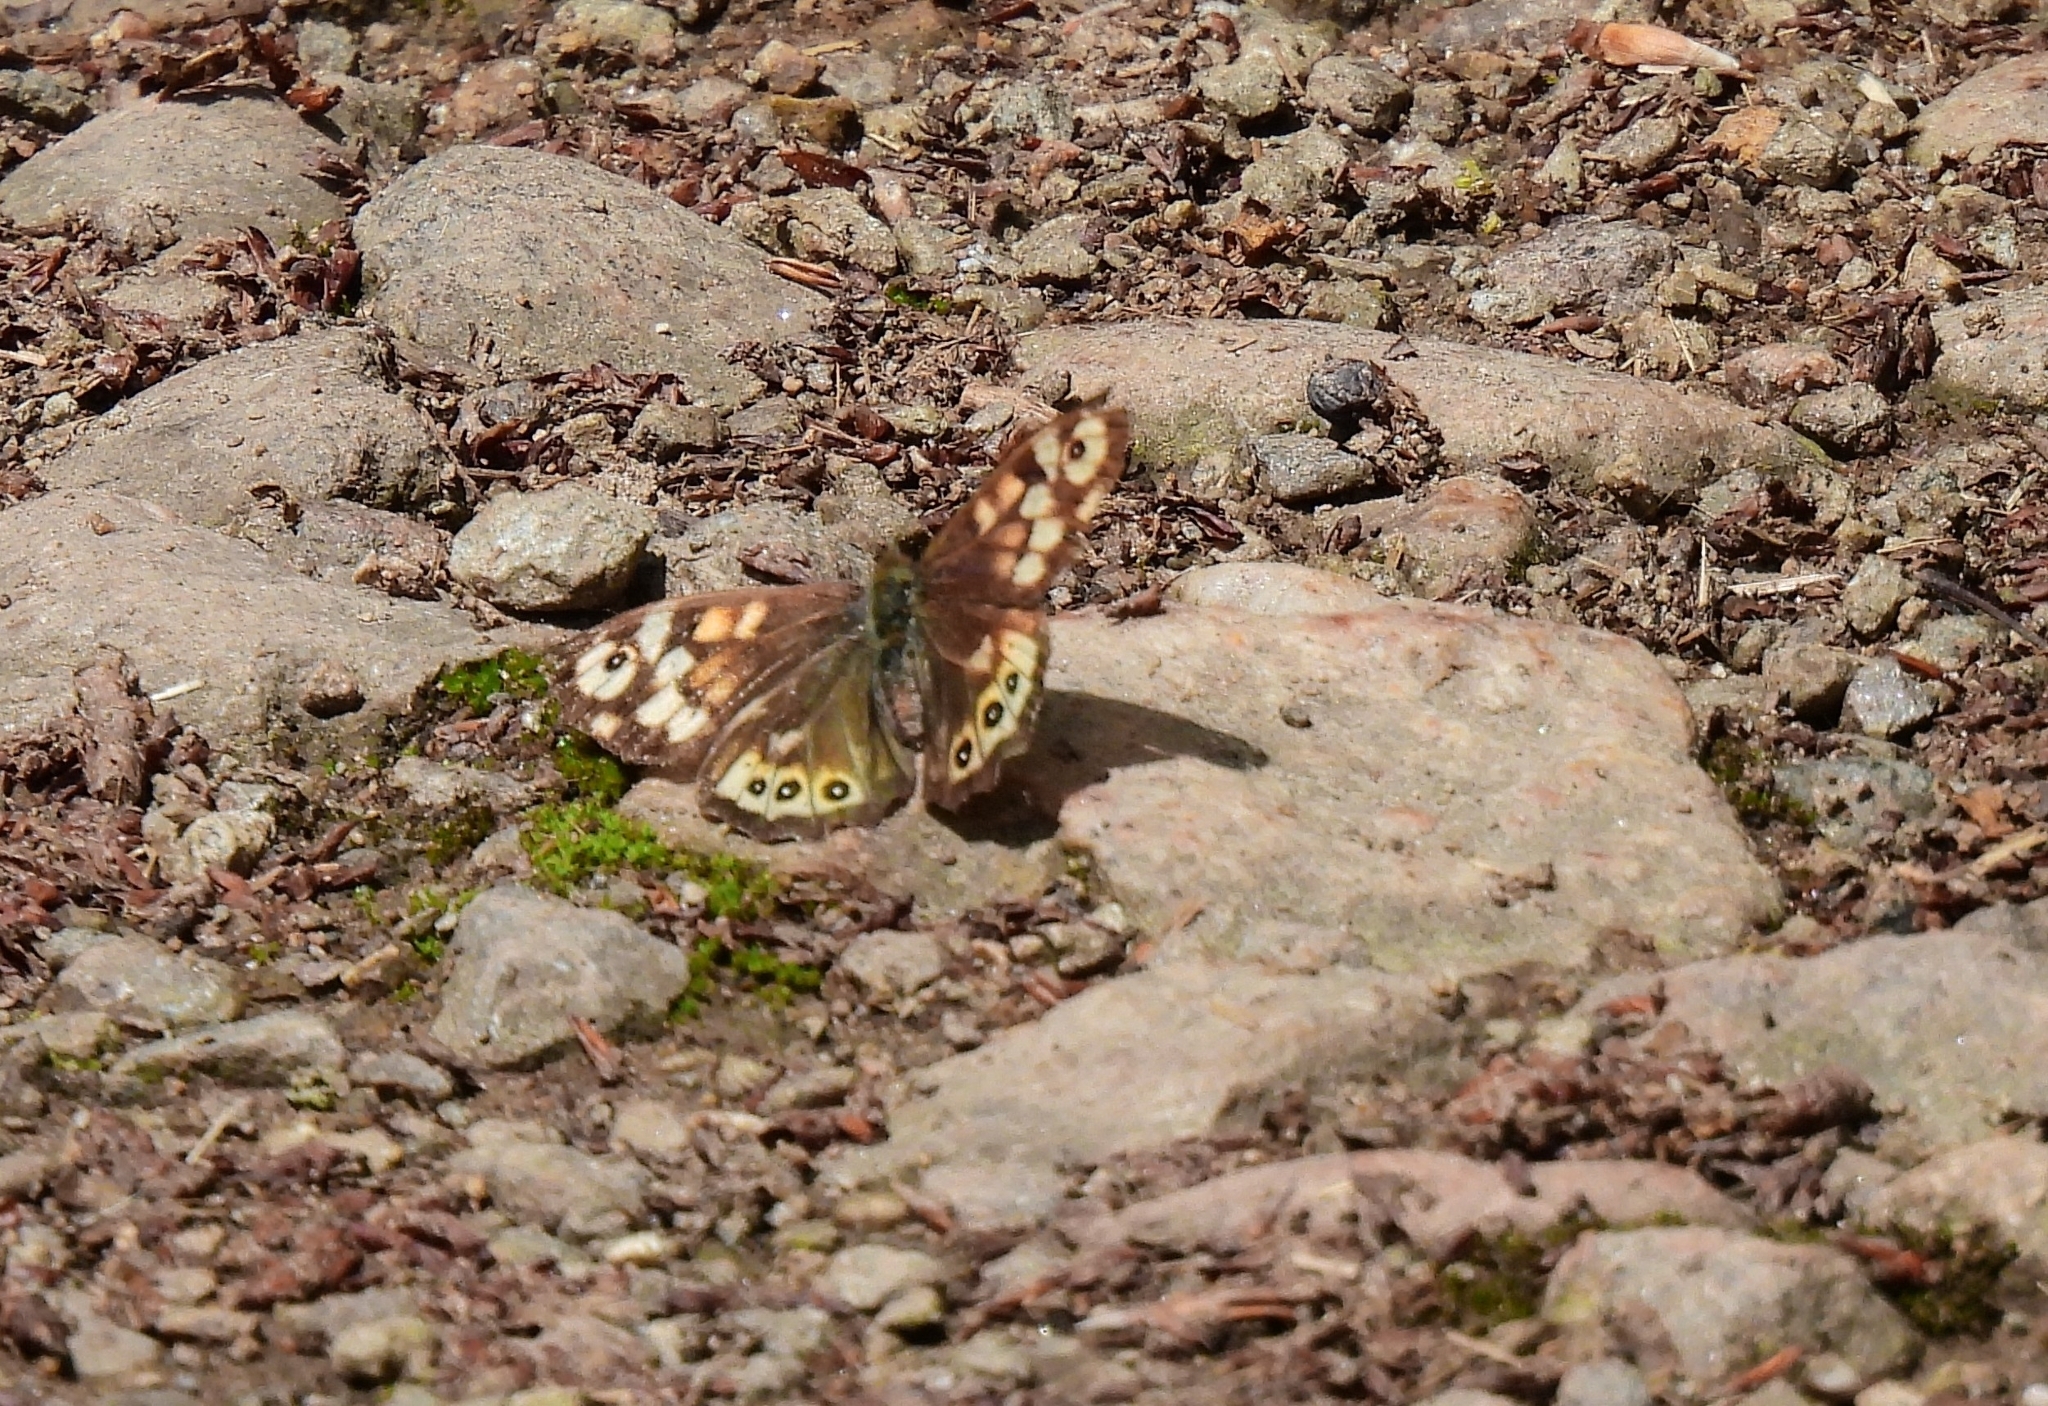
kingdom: Animalia
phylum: Arthropoda
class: Insecta
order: Lepidoptera
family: Nymphalidae
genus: Pararge
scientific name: Pararge aegeria
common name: Speckled wood
